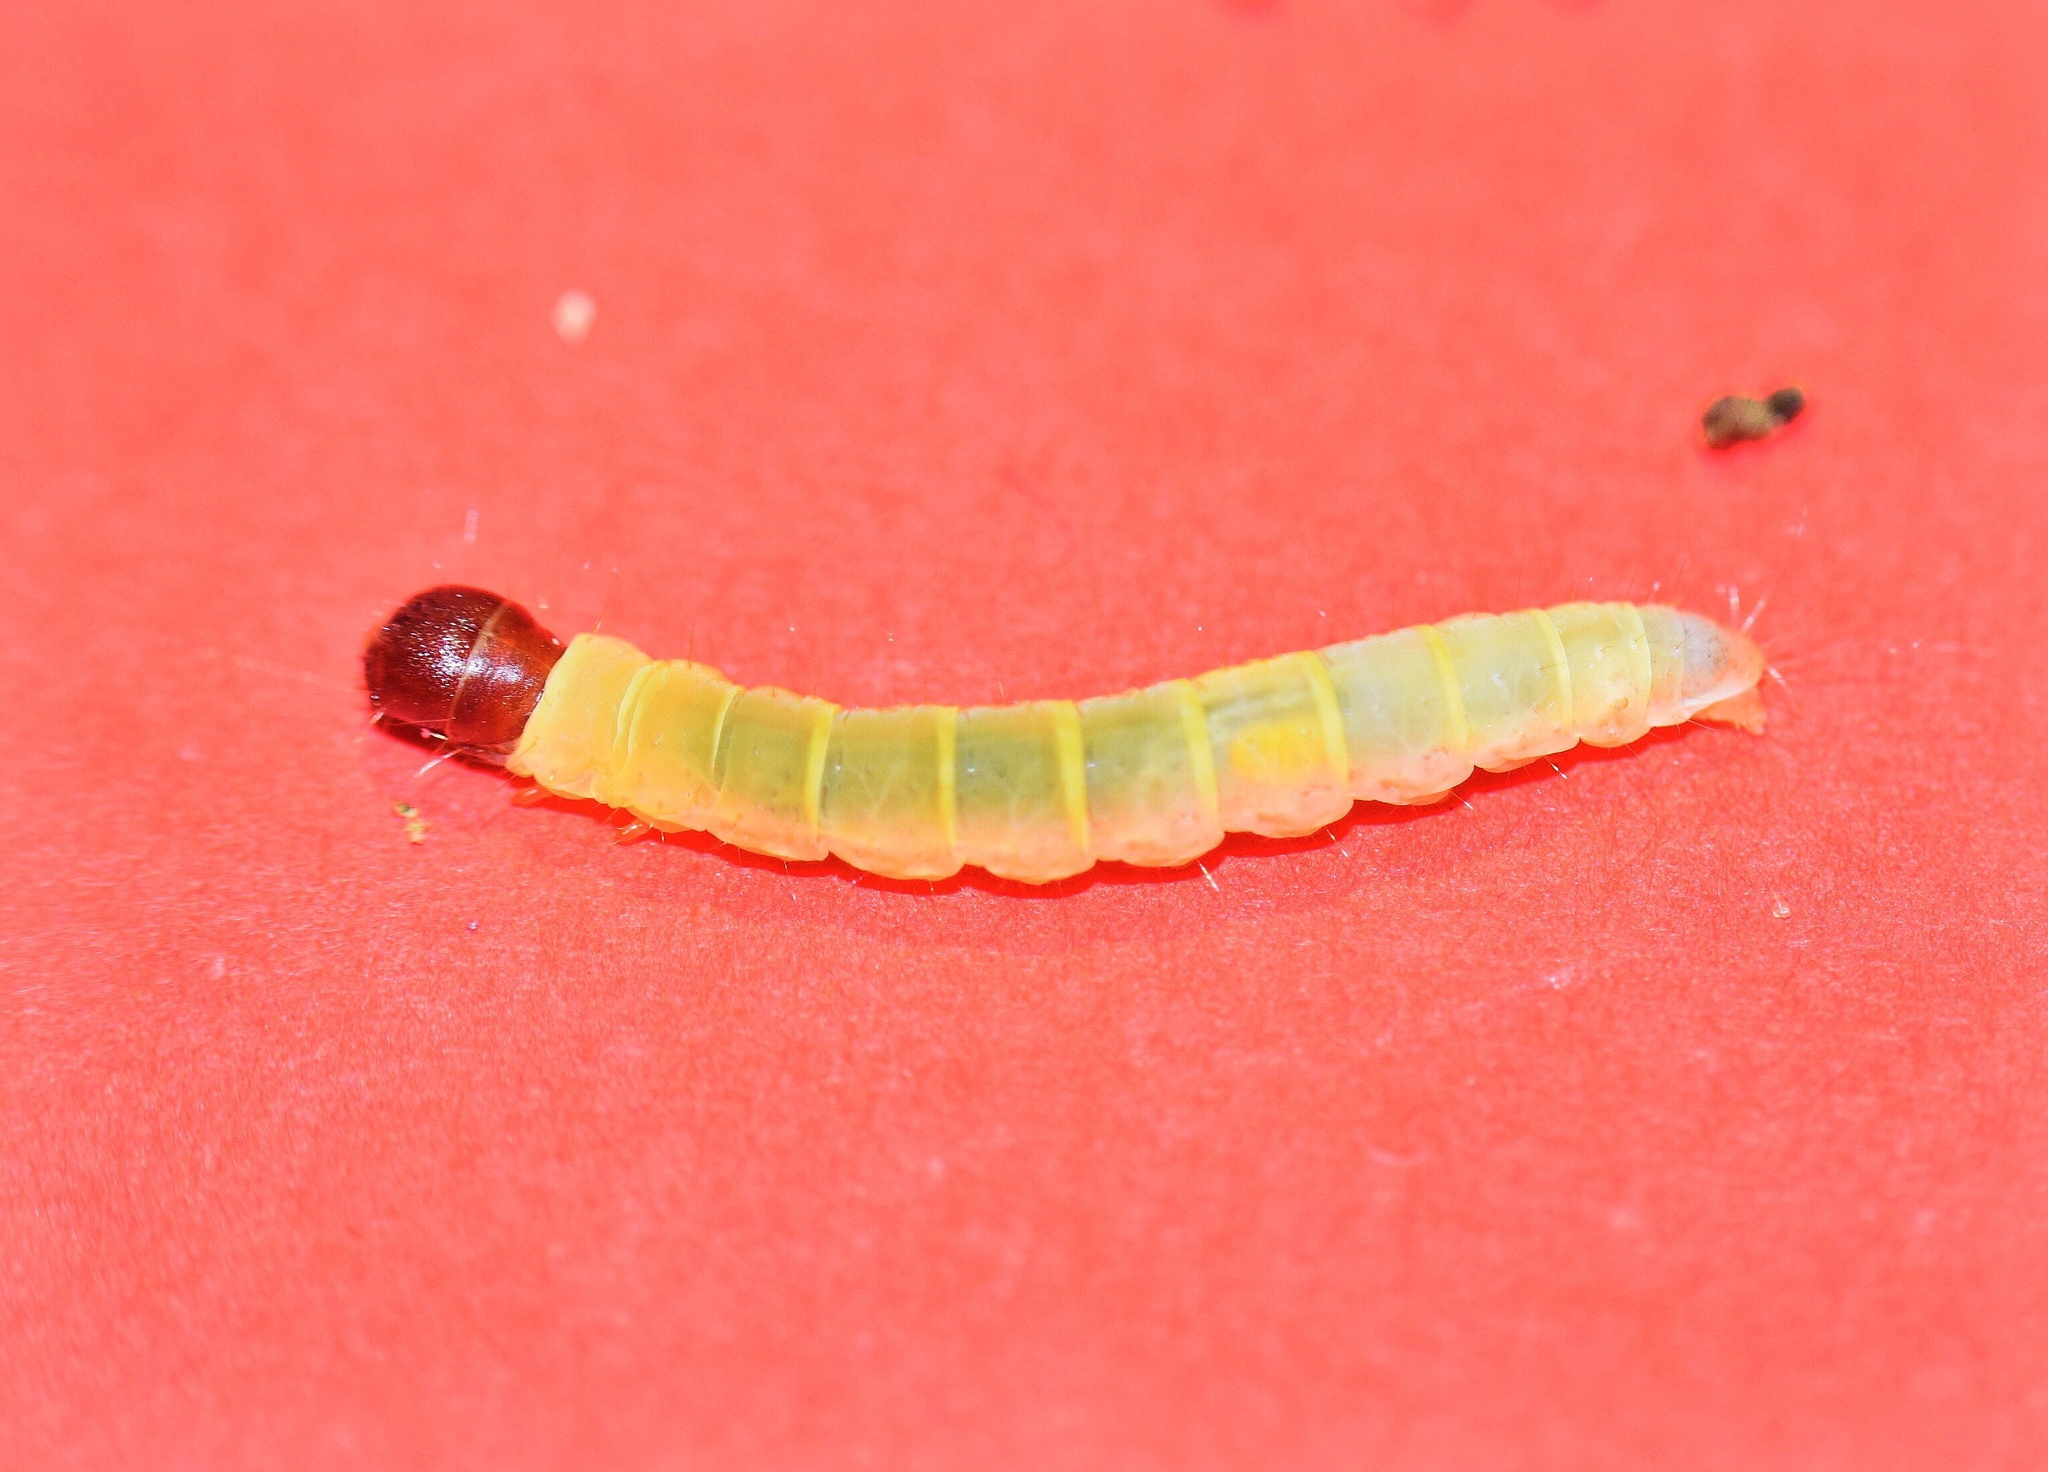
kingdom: Animalia
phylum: Arthropoda
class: Insecta
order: Lepidoptera
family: Peleopodidae
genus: Odites
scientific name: Odites sucinea
